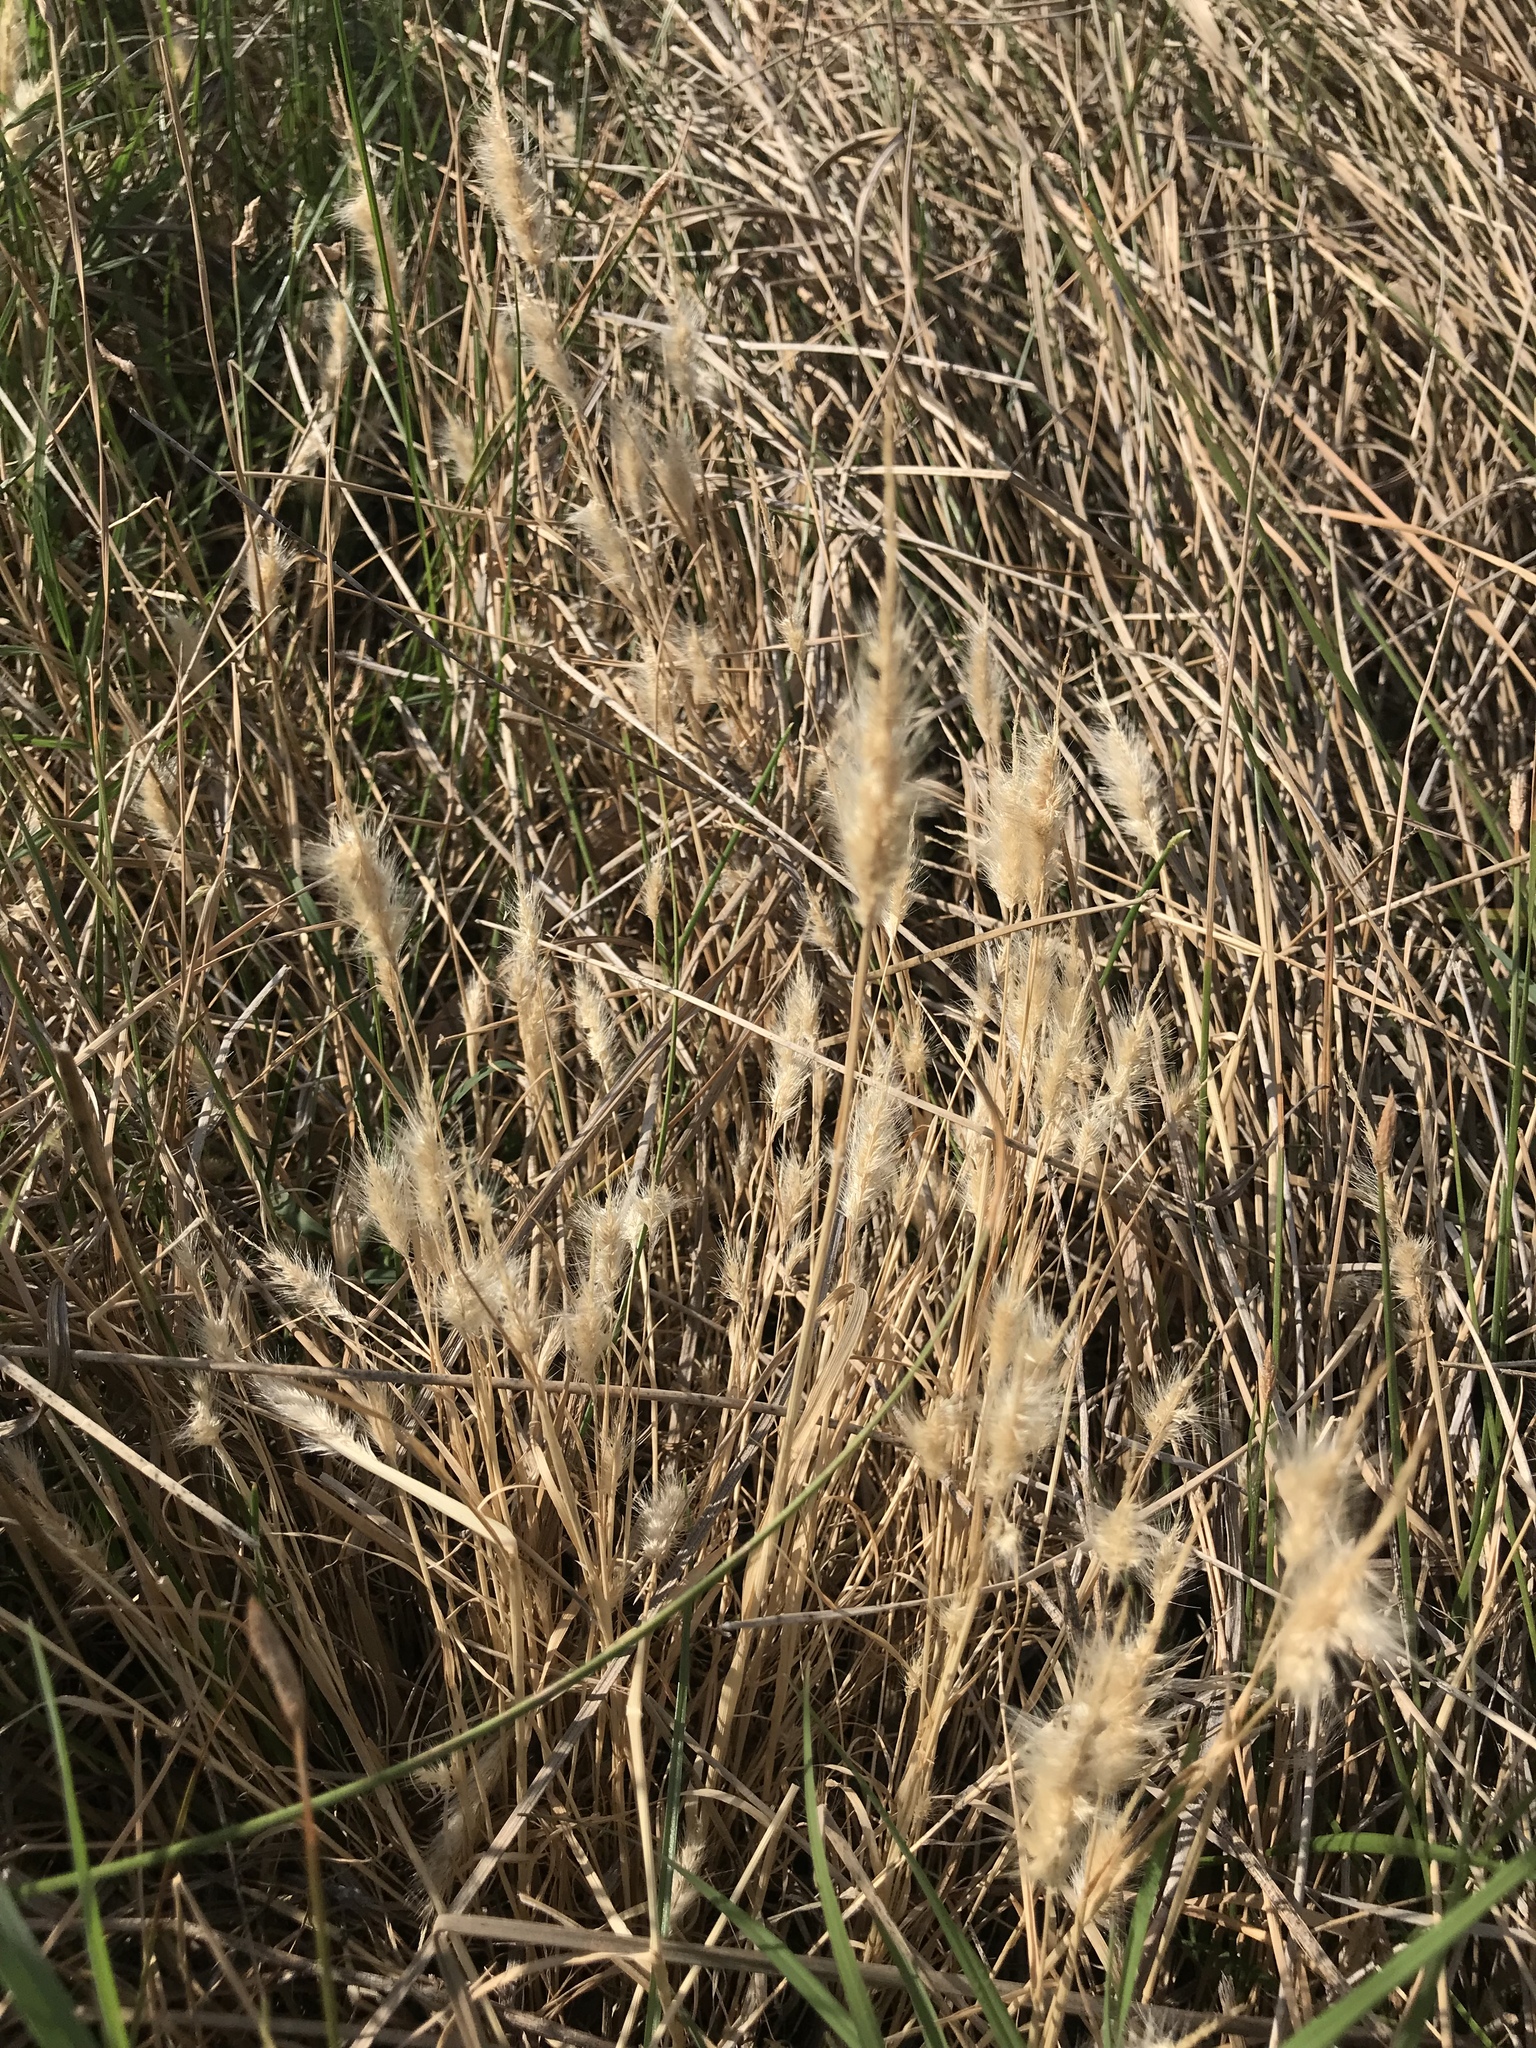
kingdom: Plantae
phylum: Tracheophyta
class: Liliopsida
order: Poales
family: Poaceae
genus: Polypogon
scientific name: Polypogon monspeliensis
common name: Annual rabbitsfoot grass
